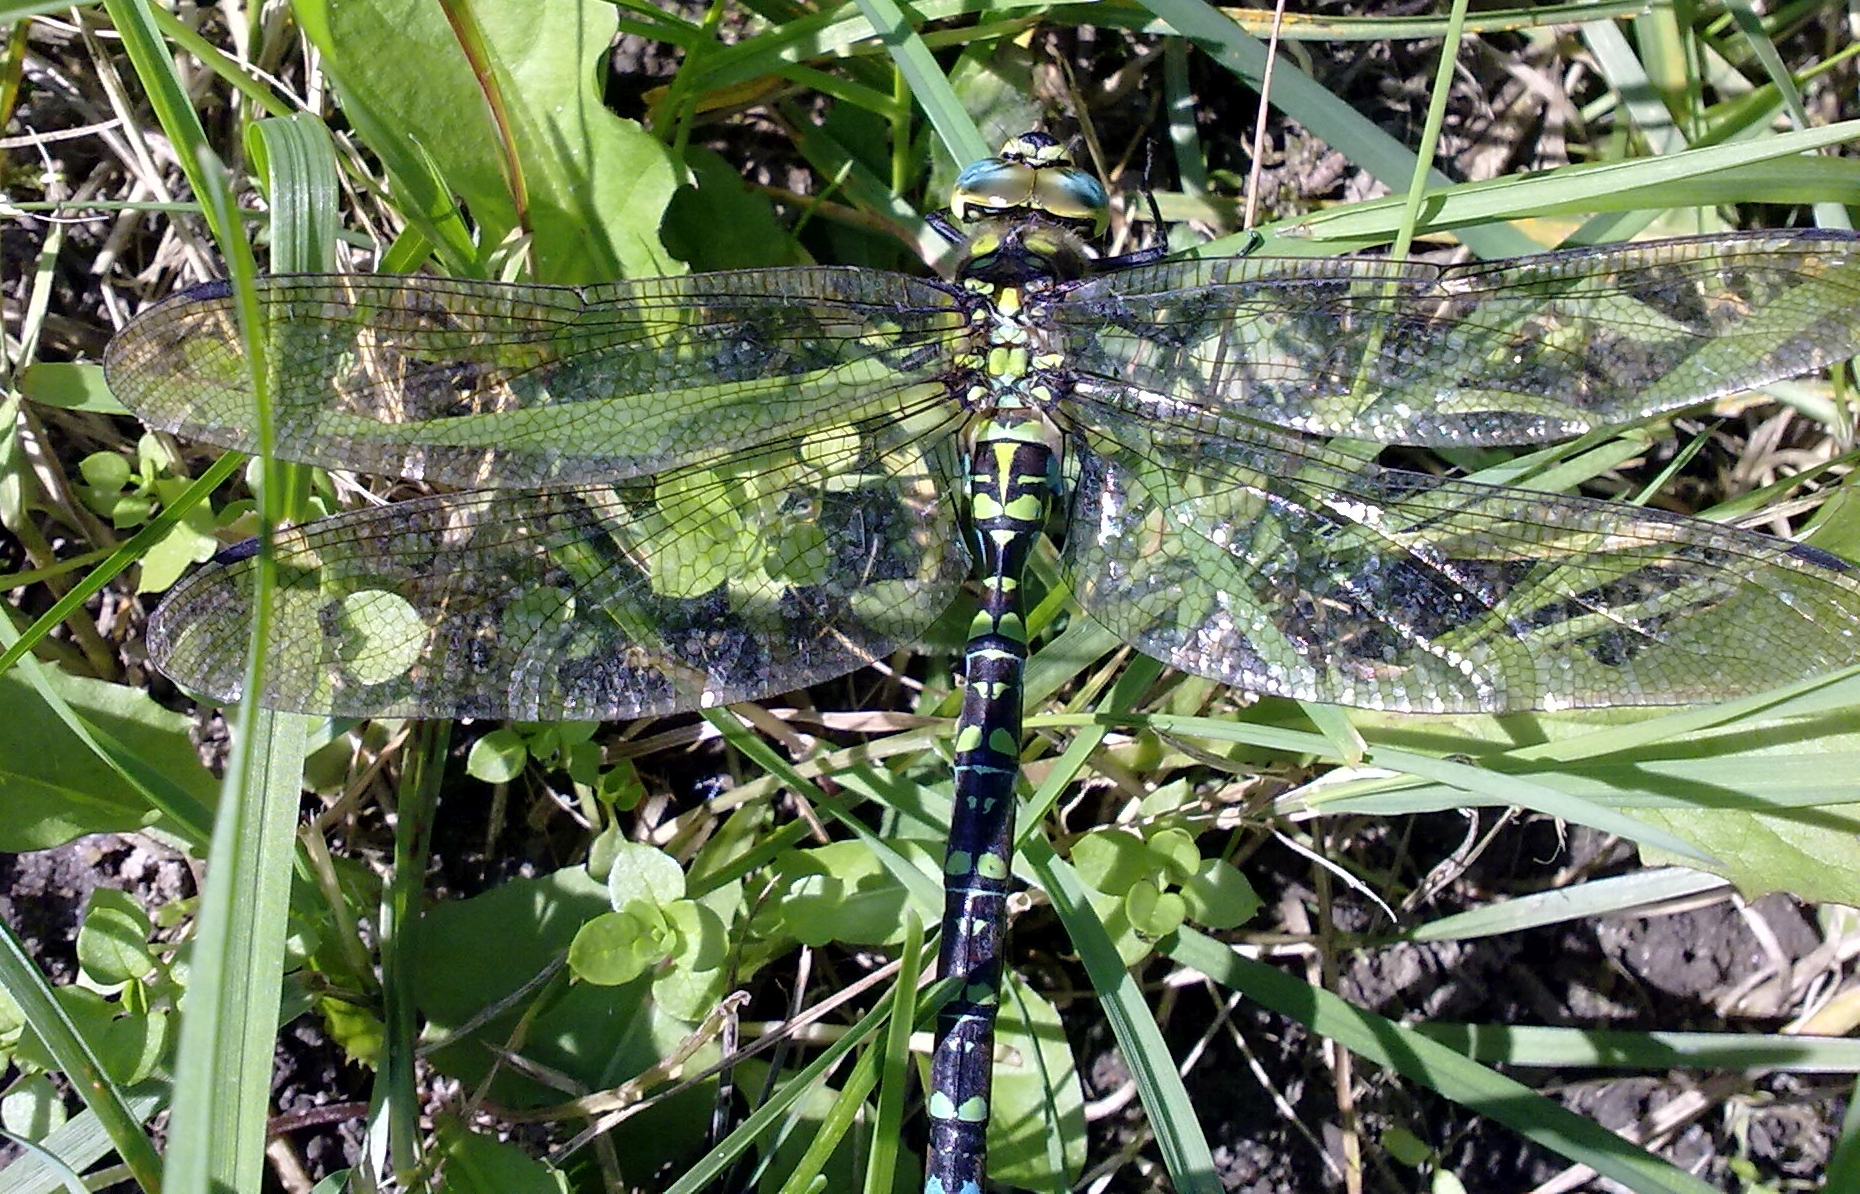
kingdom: Animalia
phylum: Arthropoda
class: Insecta
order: Odonata
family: Aeshnidae
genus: Aeshna
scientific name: Aeshna cyanea
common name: Southern hawker
